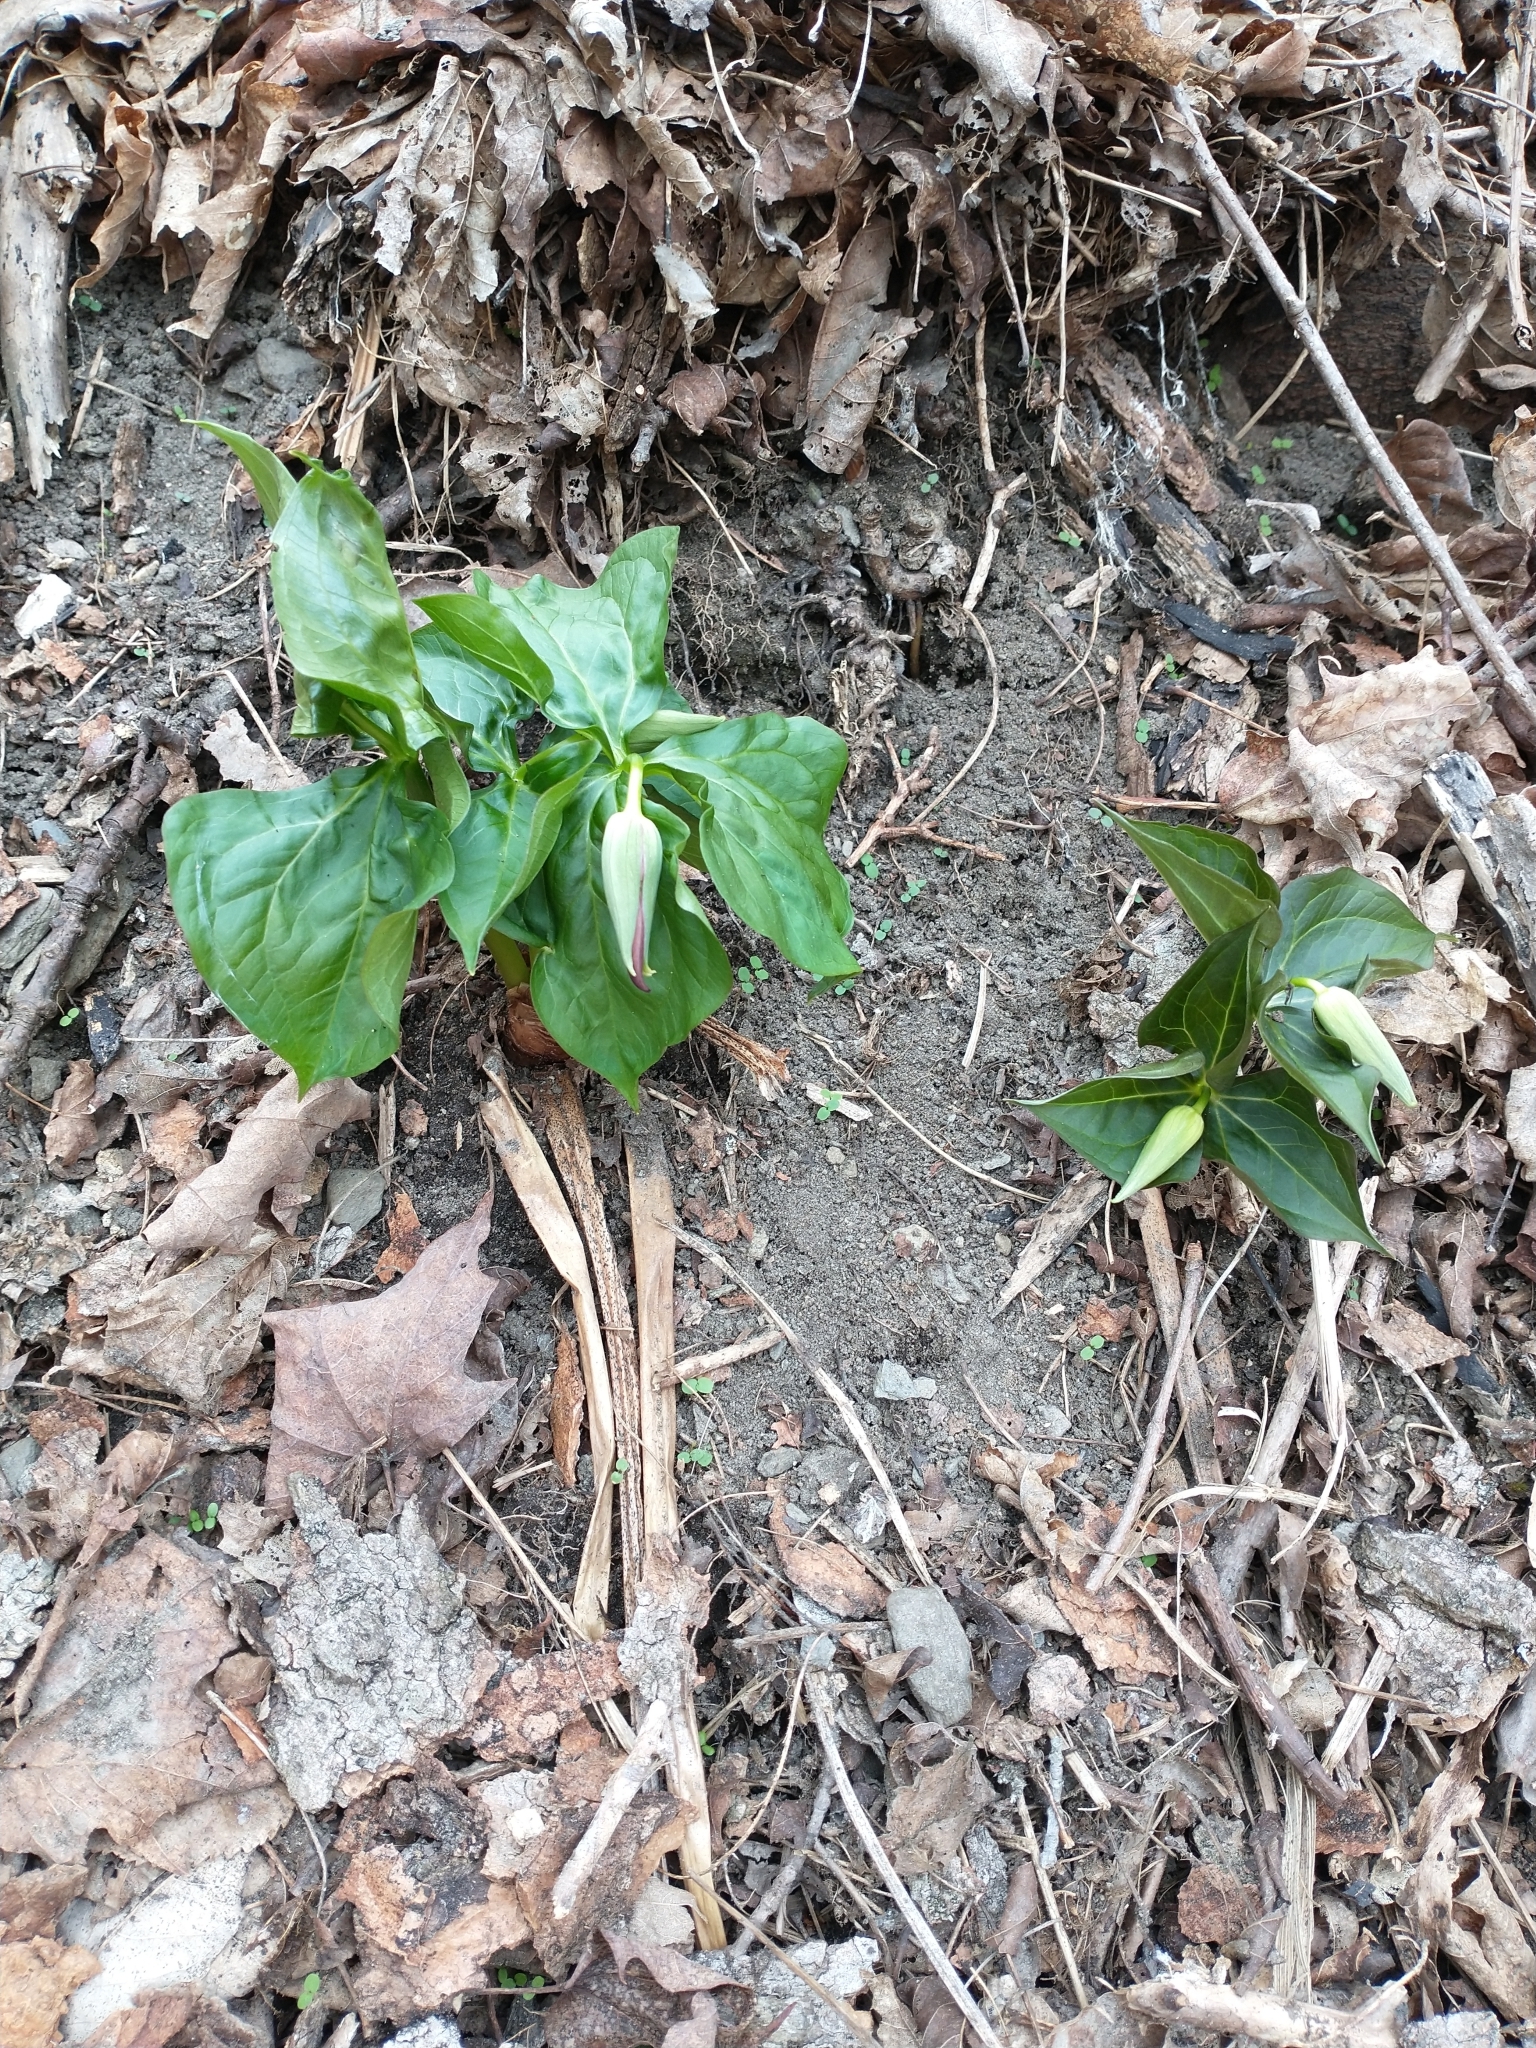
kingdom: Plantae
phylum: Tracheophyta
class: Liliopsida
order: Liliales
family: Melanthiaceae
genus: Trillium
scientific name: Trillium erectum
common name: Purple trillium
